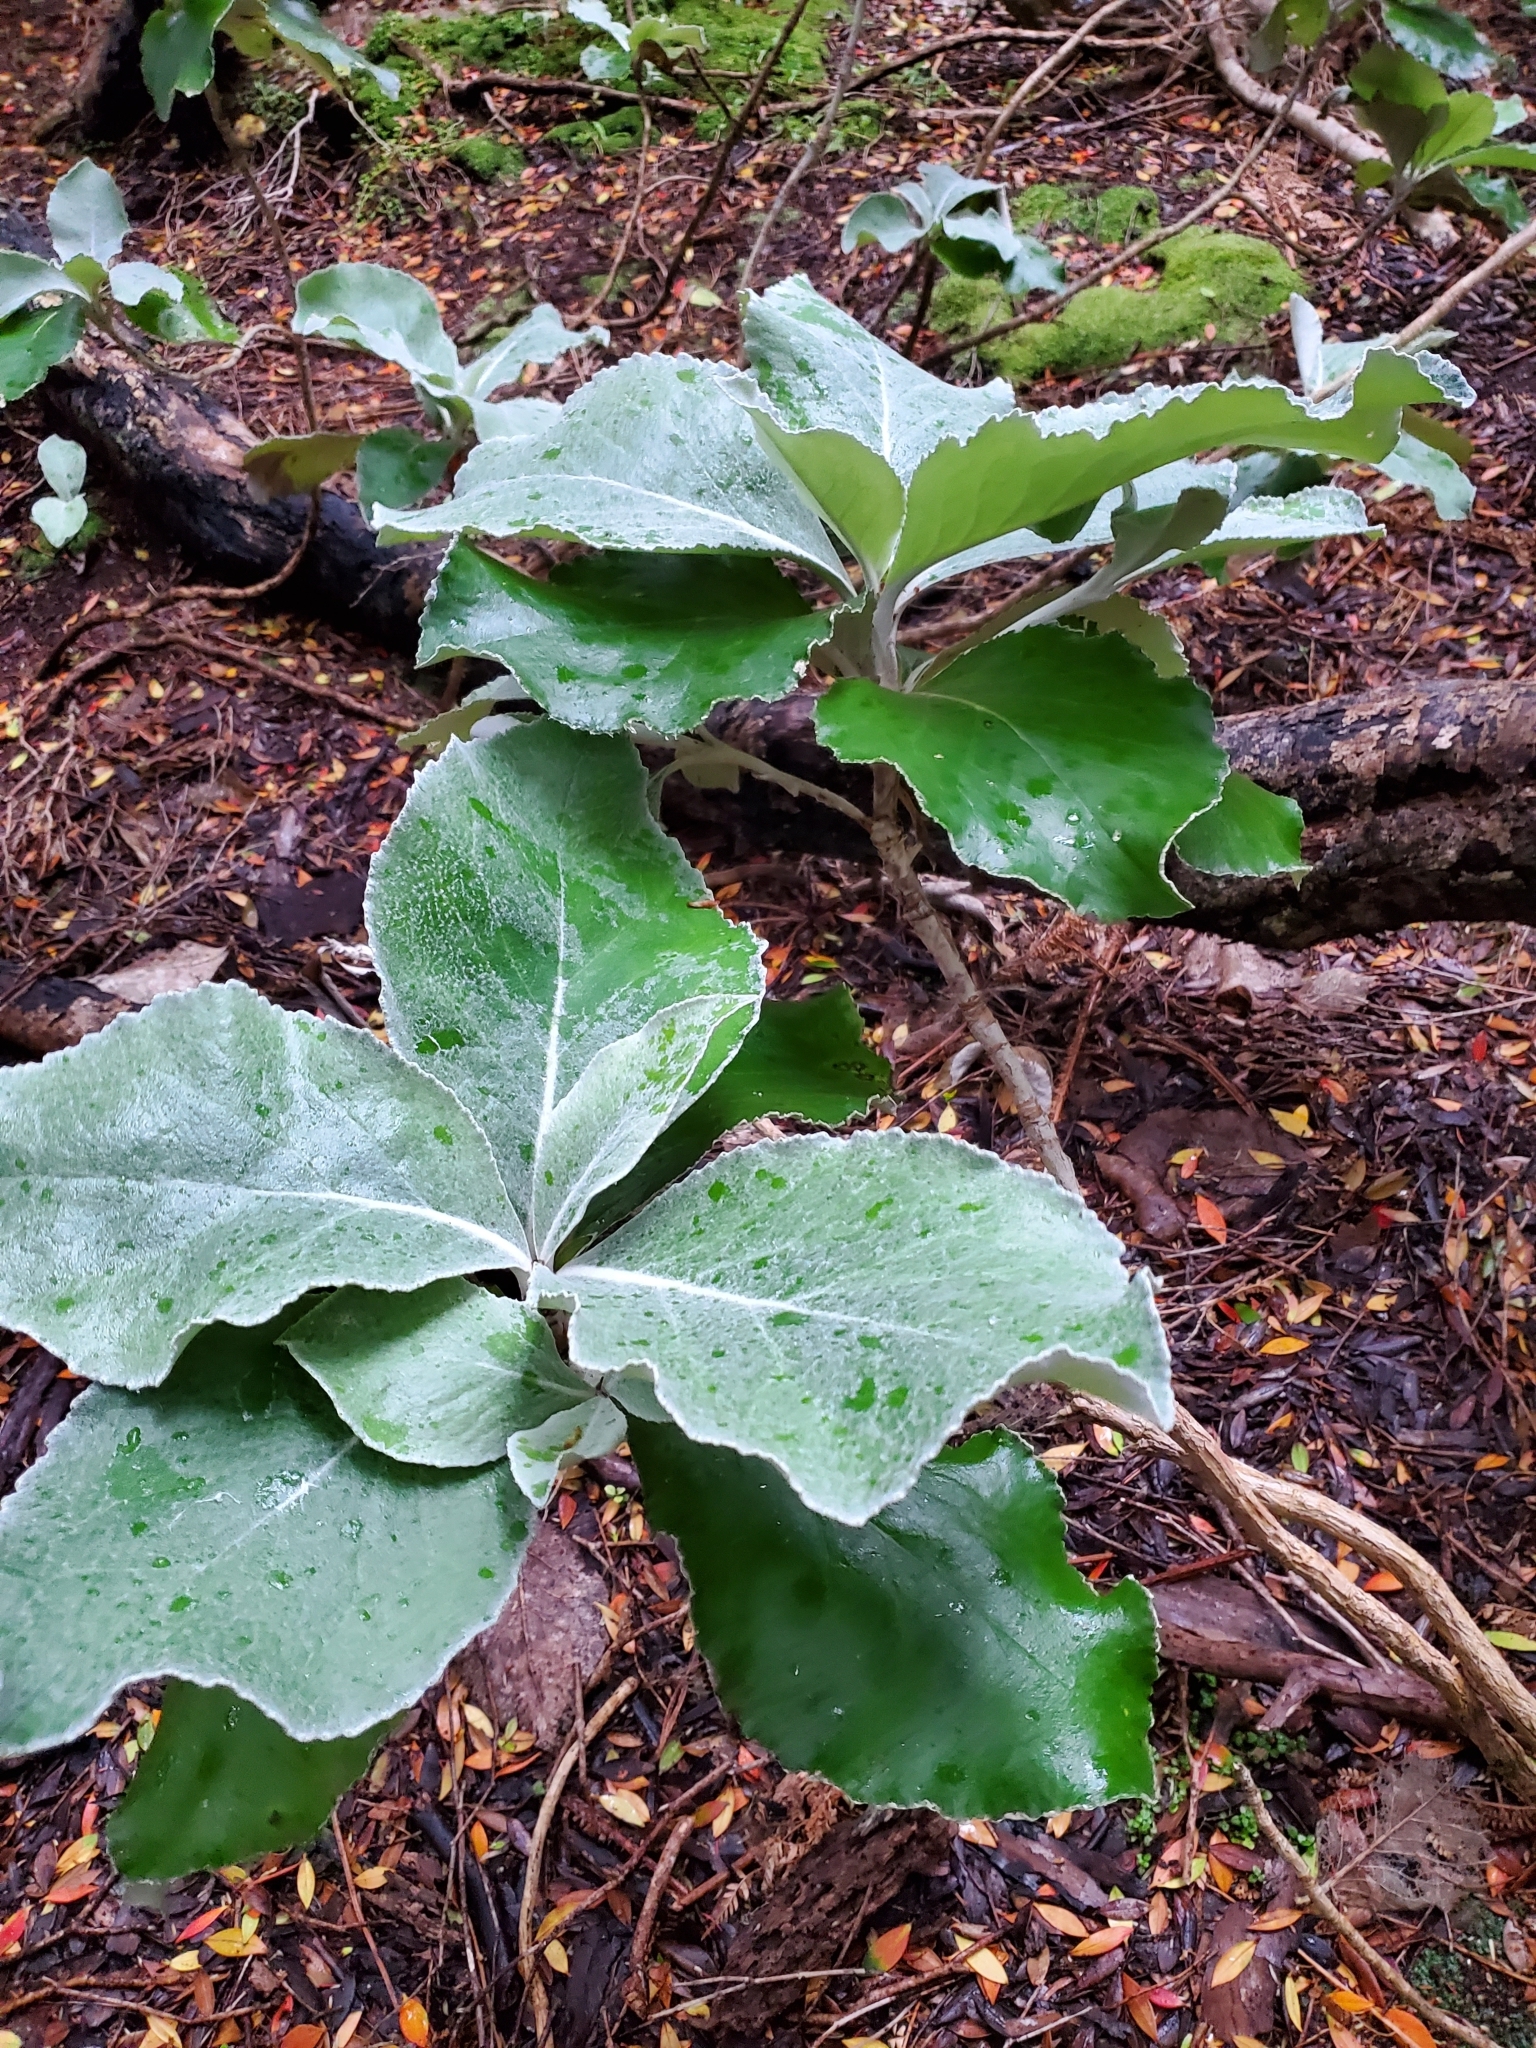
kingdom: Plantae
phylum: Tracheophyta
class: Magnoliopsida
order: Asterales
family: Asteraceae
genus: Macrolearia
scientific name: Macrolearia lyallii
